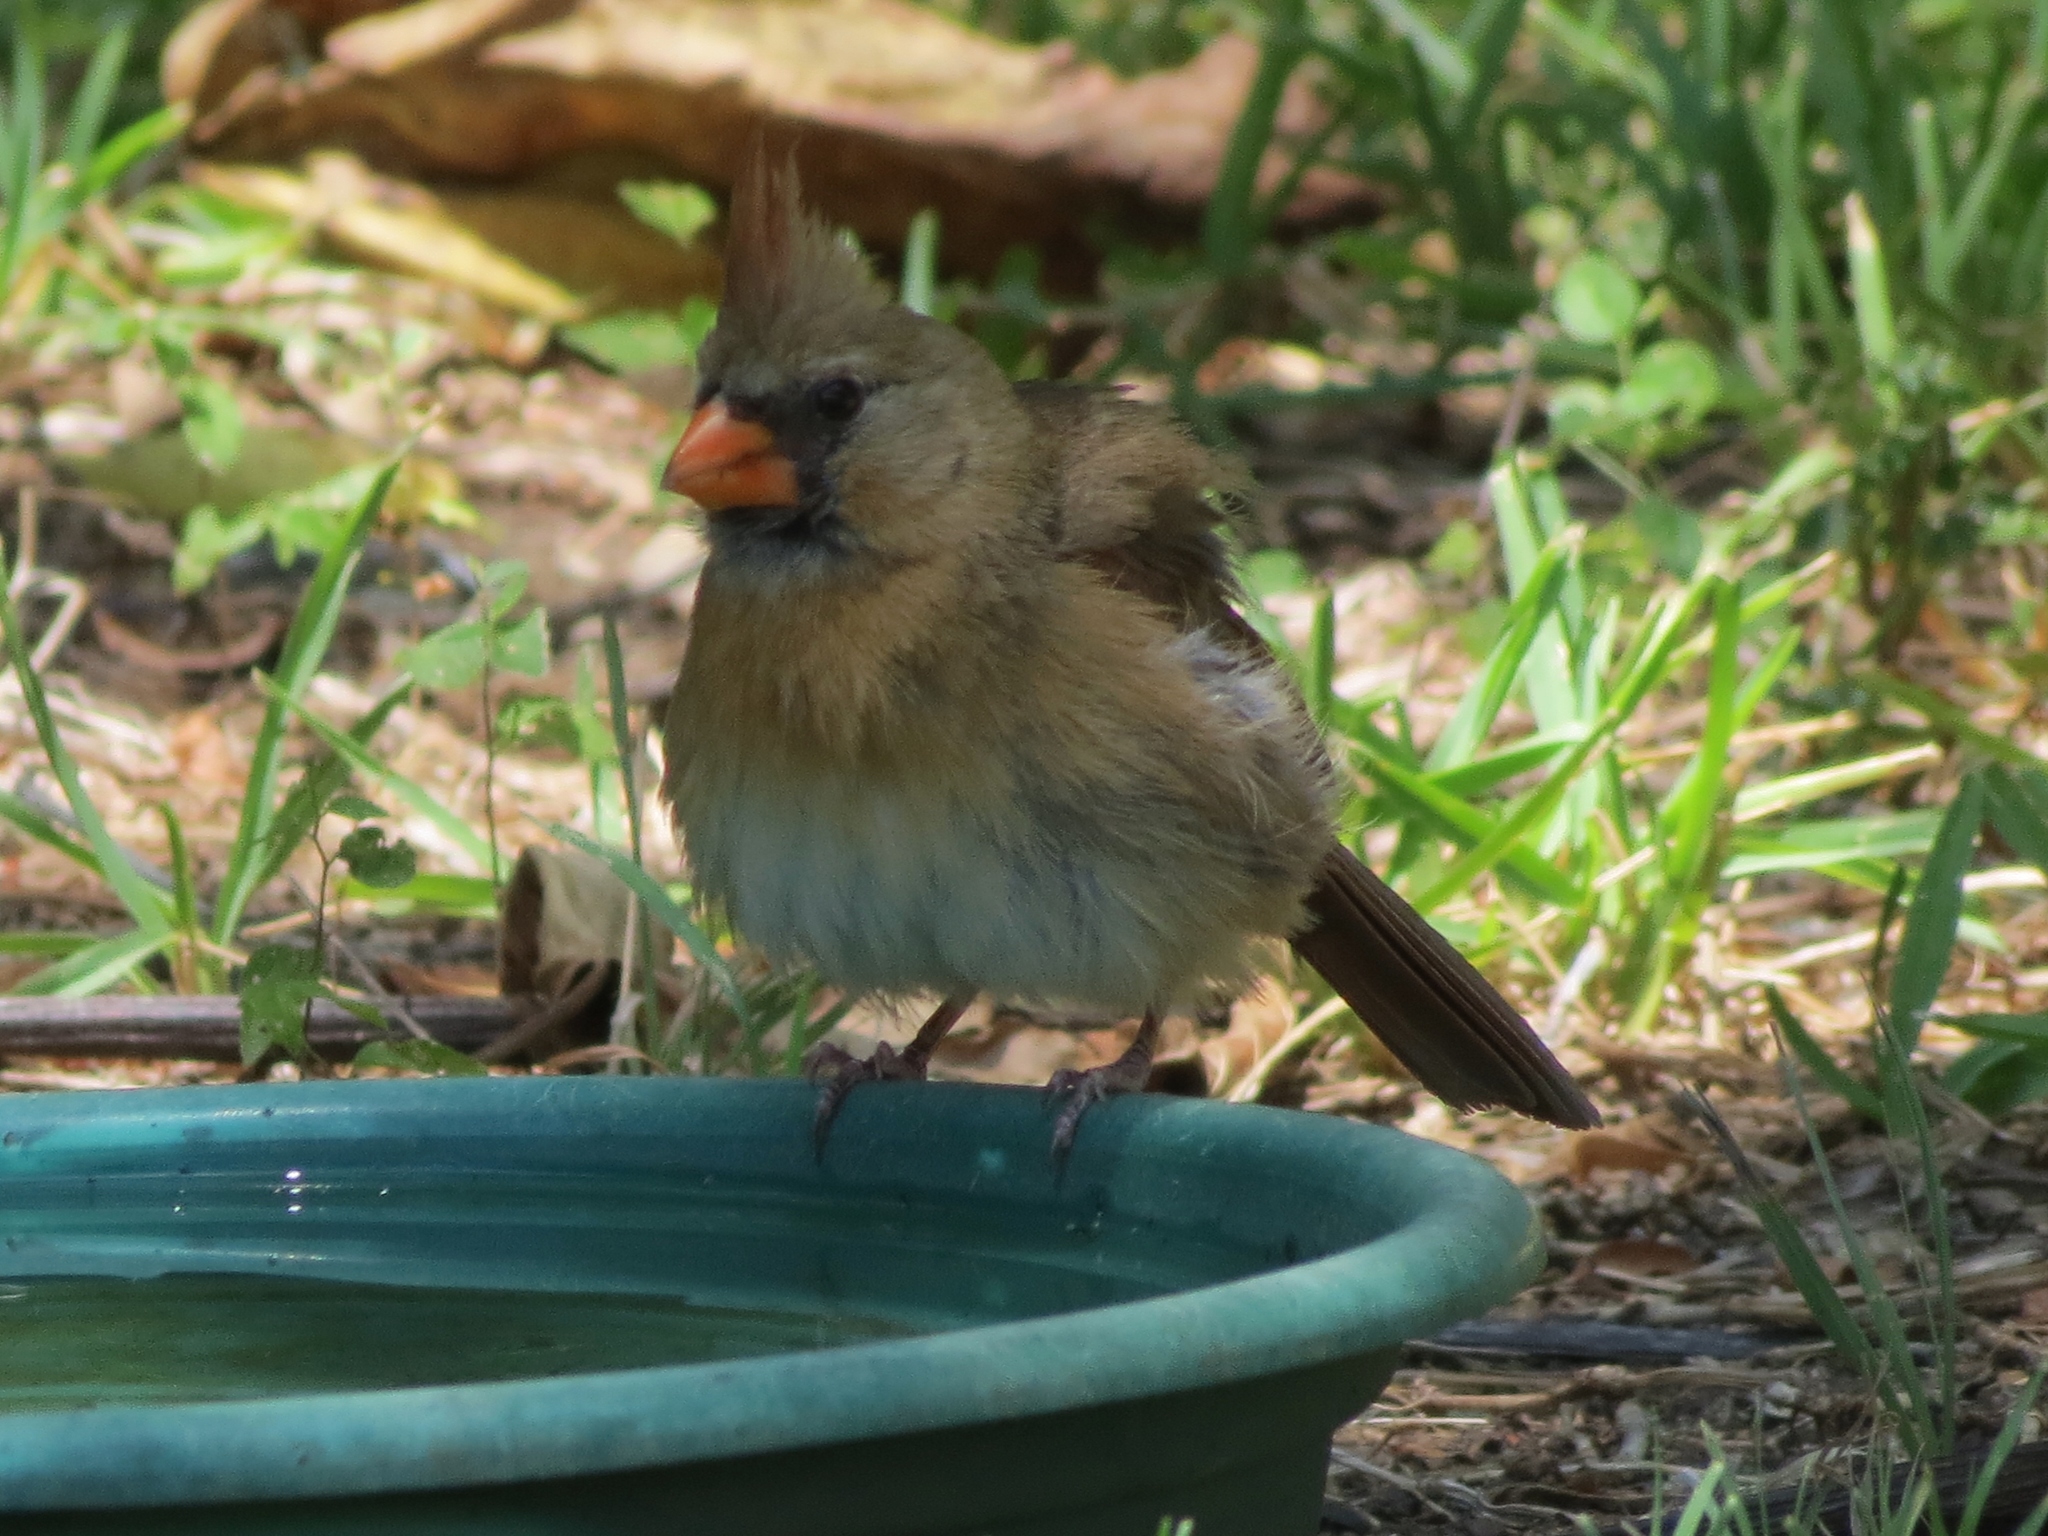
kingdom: Animalia
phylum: Chordata
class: Aves
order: Passeriformes
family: Cardinalidae
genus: Cardinalis
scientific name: Cardinalis cardinalis
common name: Northern cardinal
